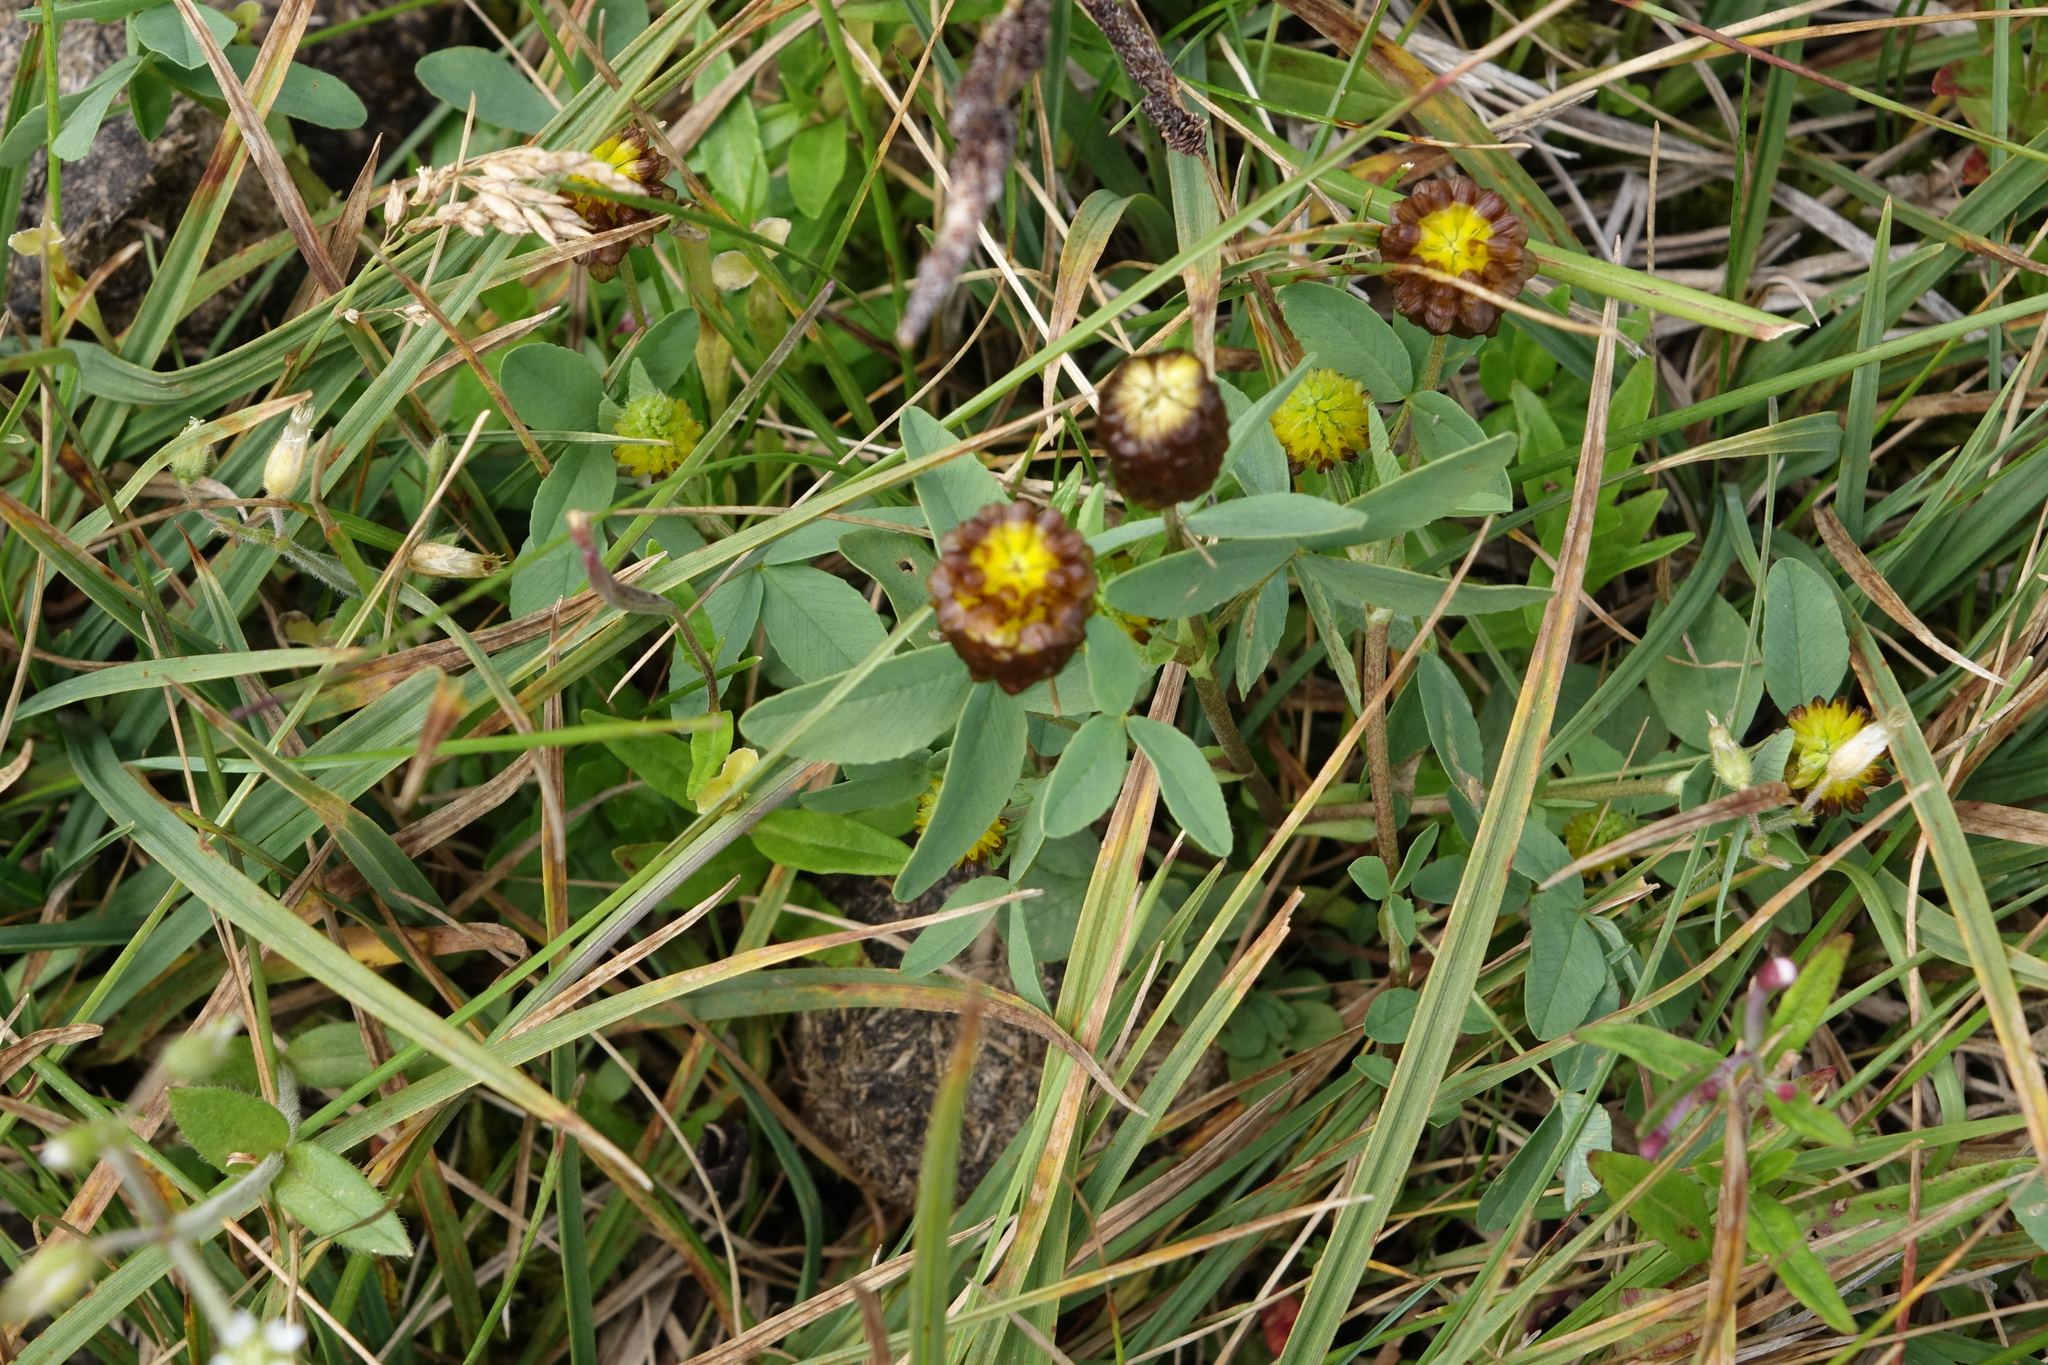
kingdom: Plantae
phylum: Tracheophyta
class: Magnoliopsida
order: Fabales
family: Fabaceae
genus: Trifolium
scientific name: Trifolium spadiceum
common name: Brown moor clover
